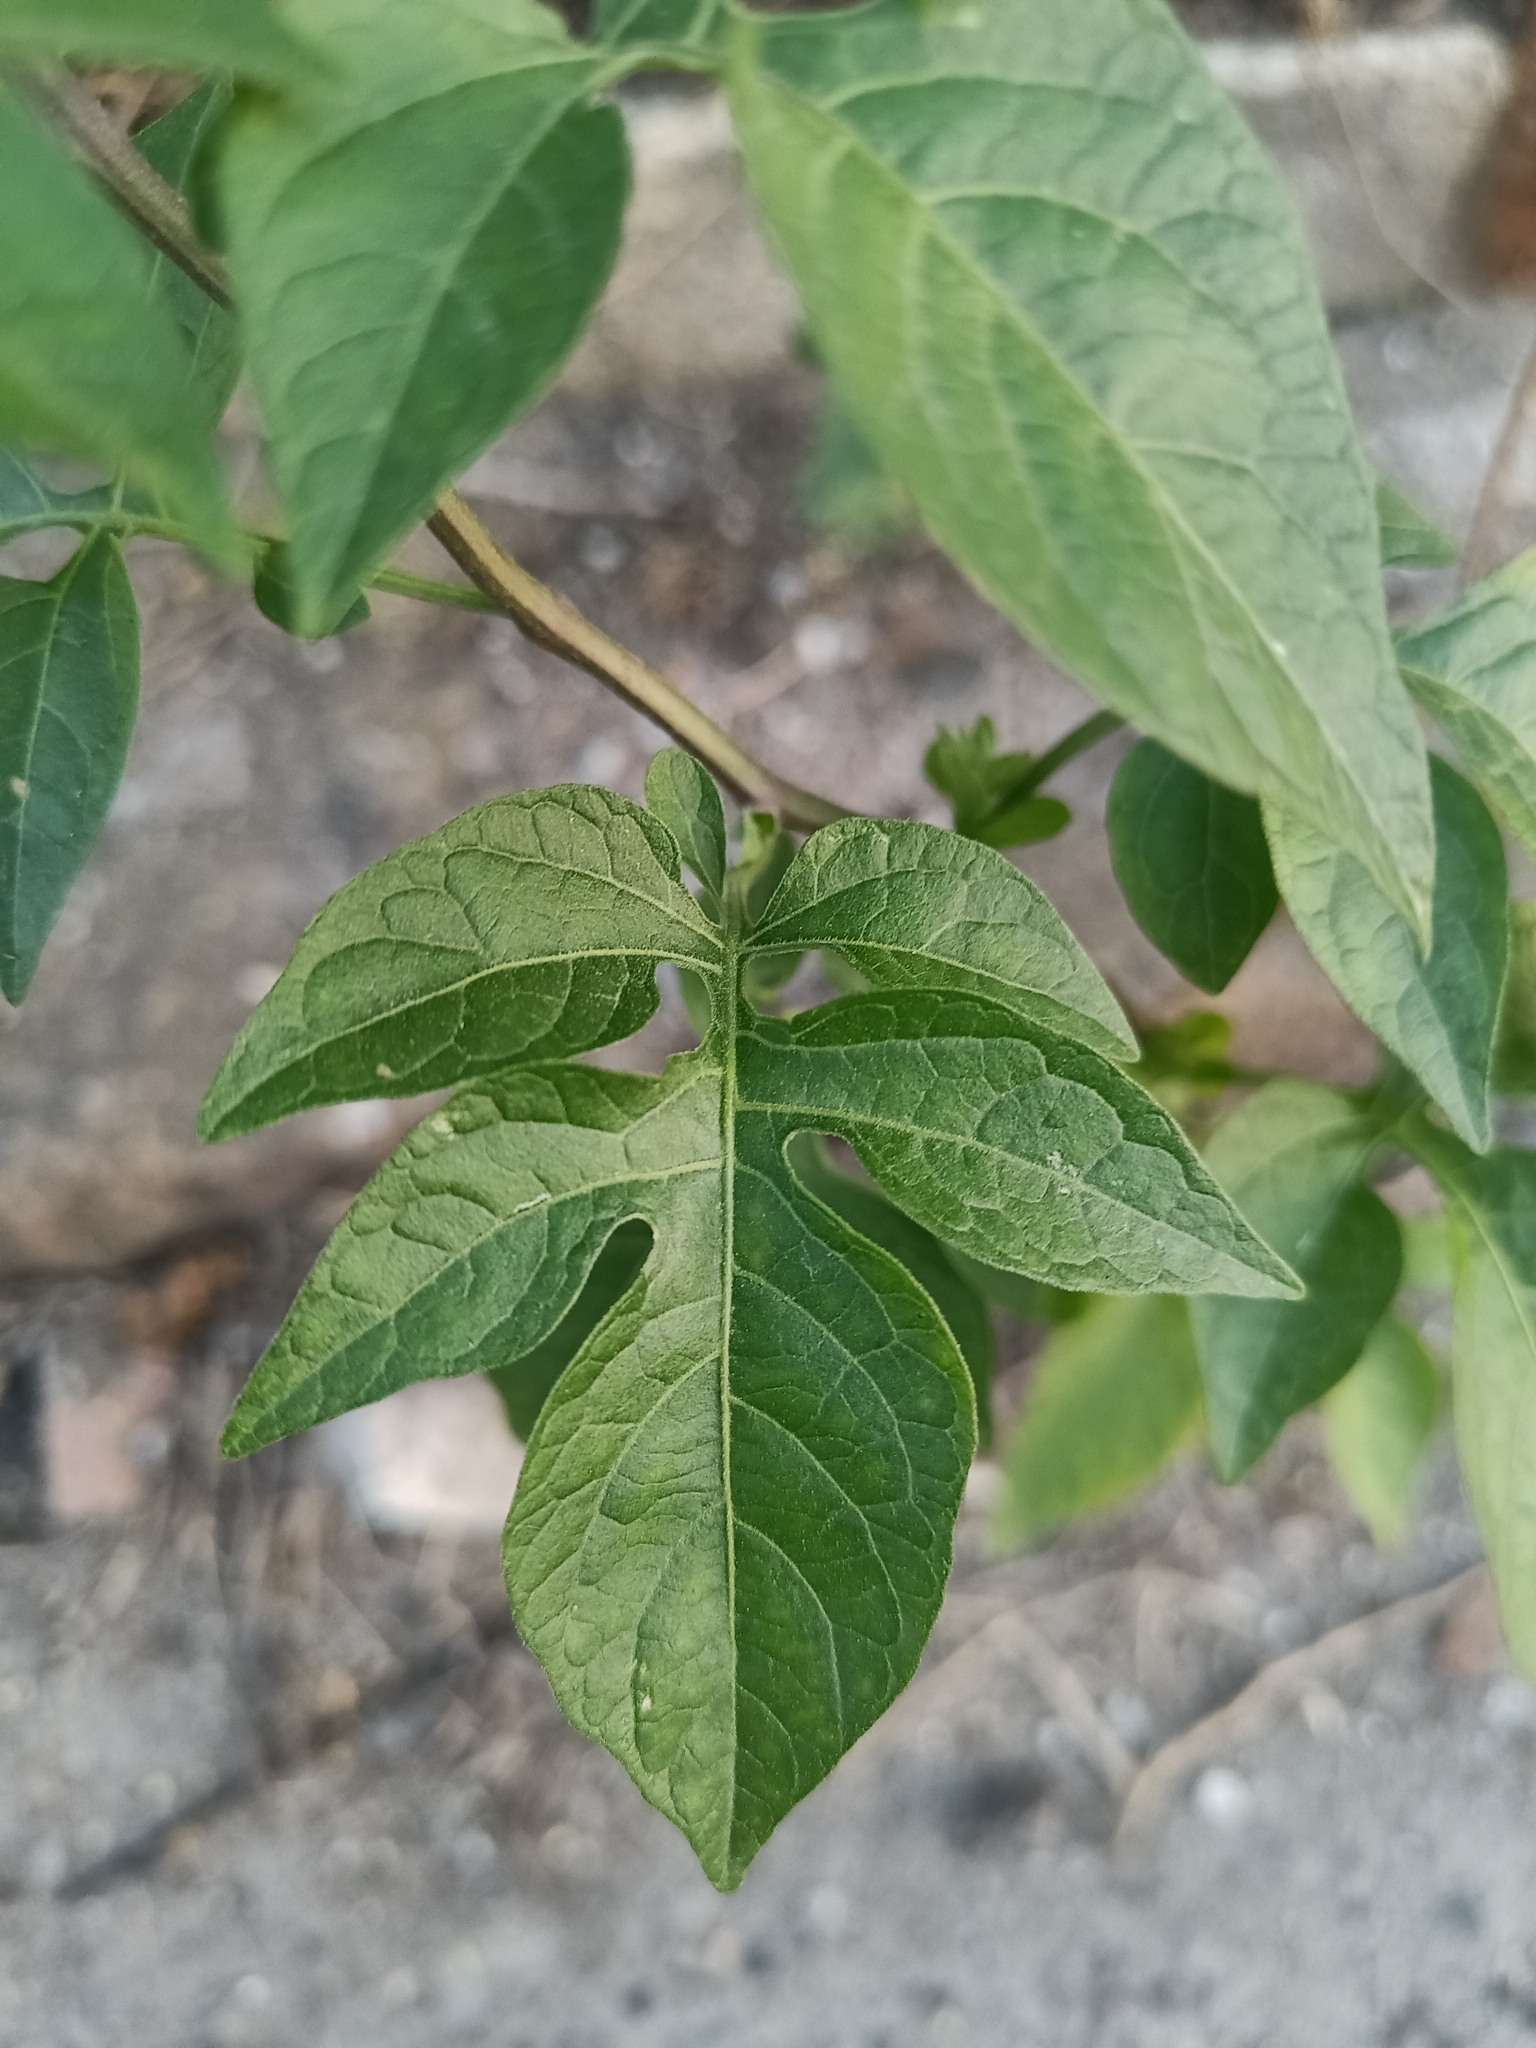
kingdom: Plantae
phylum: Tracheophyta
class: Magnoliopsida
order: Solanales
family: Solanaceae
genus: Solanum
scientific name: Solanum dulcamara
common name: Climbing nightshade
